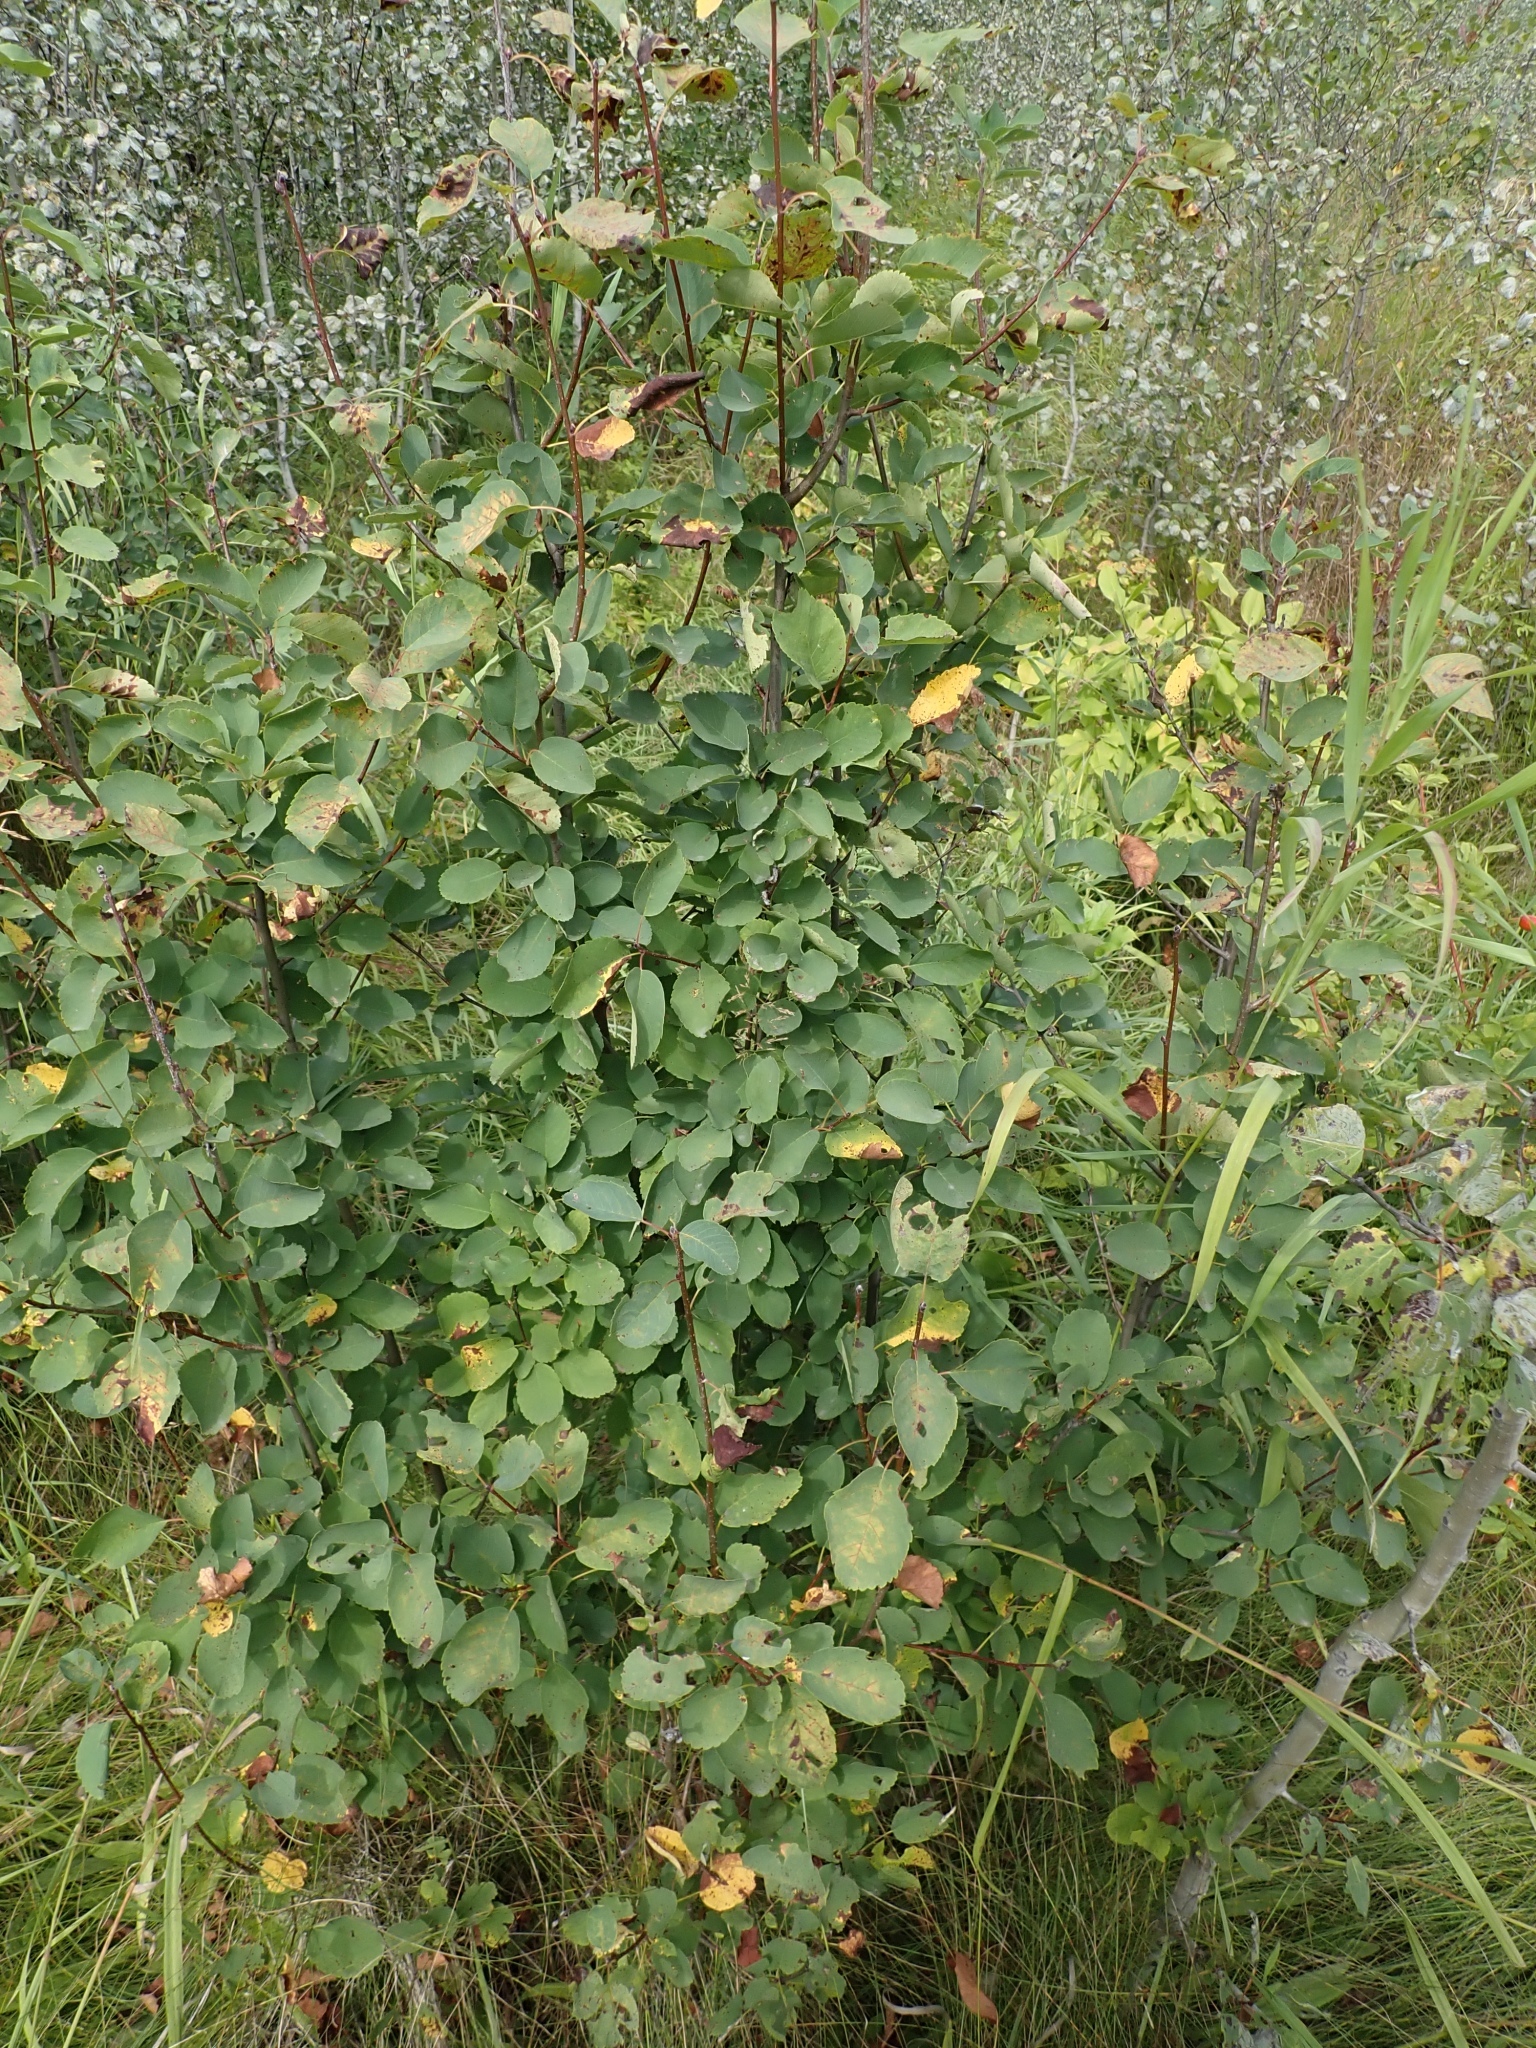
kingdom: Plantae
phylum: Tracheophyta
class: Magnoliopsida
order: Rosales
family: Rosaceae
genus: Amelanchier
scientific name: Amelanchier alnifolia
